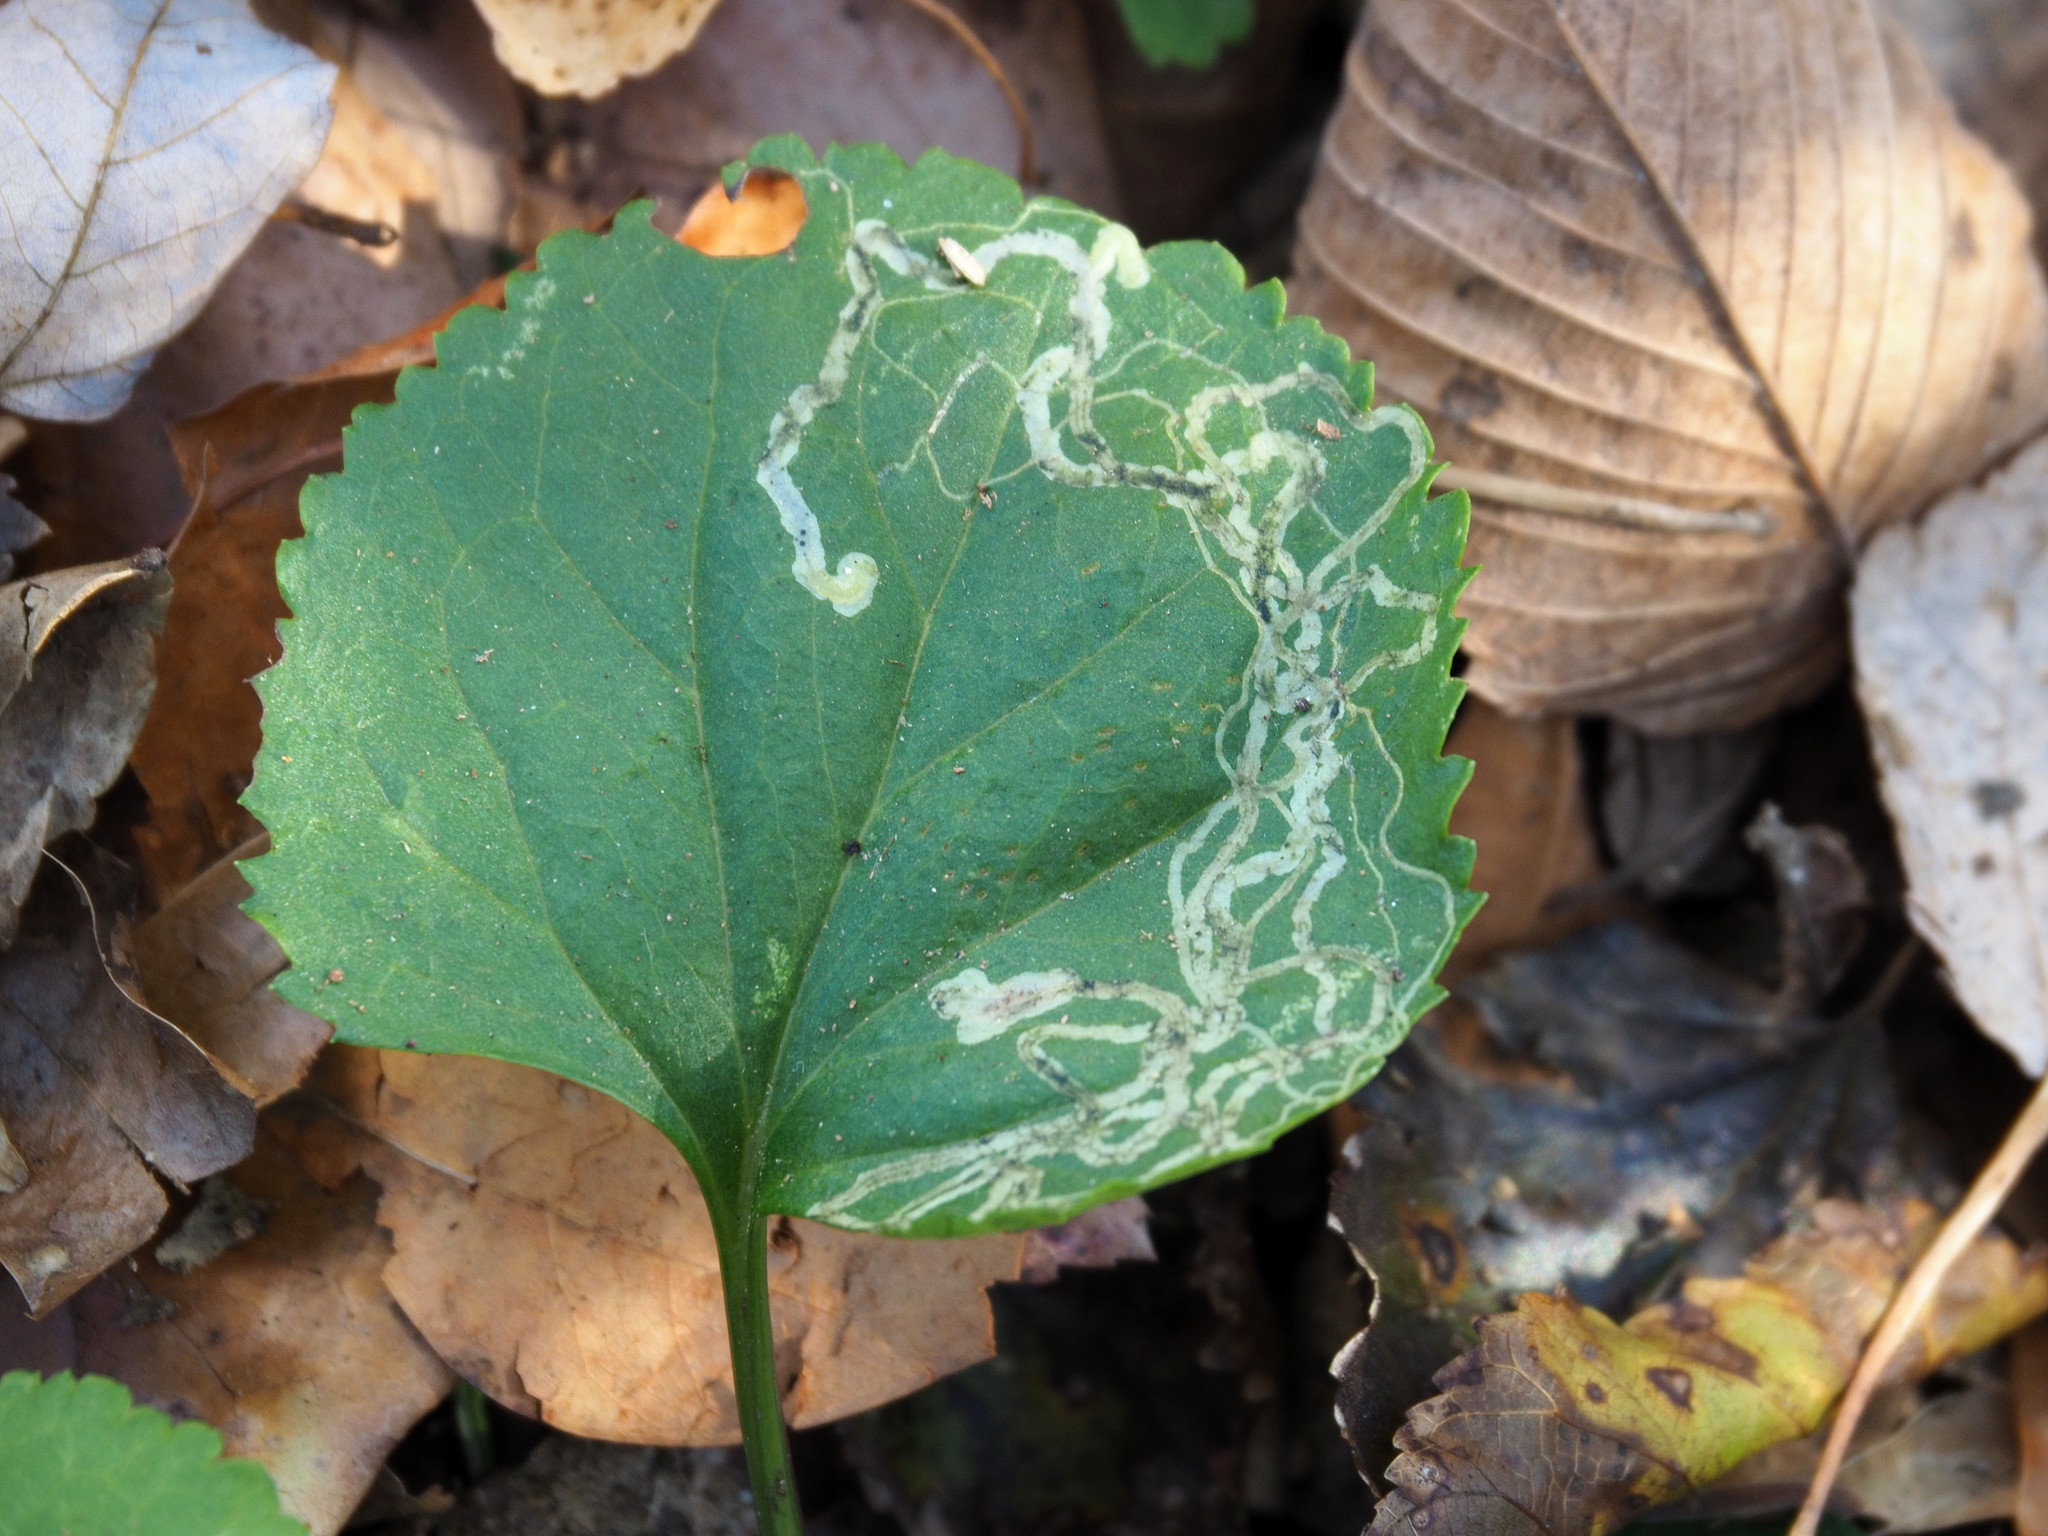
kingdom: Animalia
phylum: Arthropoda
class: Insecta
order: Lepidoptera
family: Gracillariidae
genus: Phyllocnistis
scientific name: Phyllocnistis insignis
